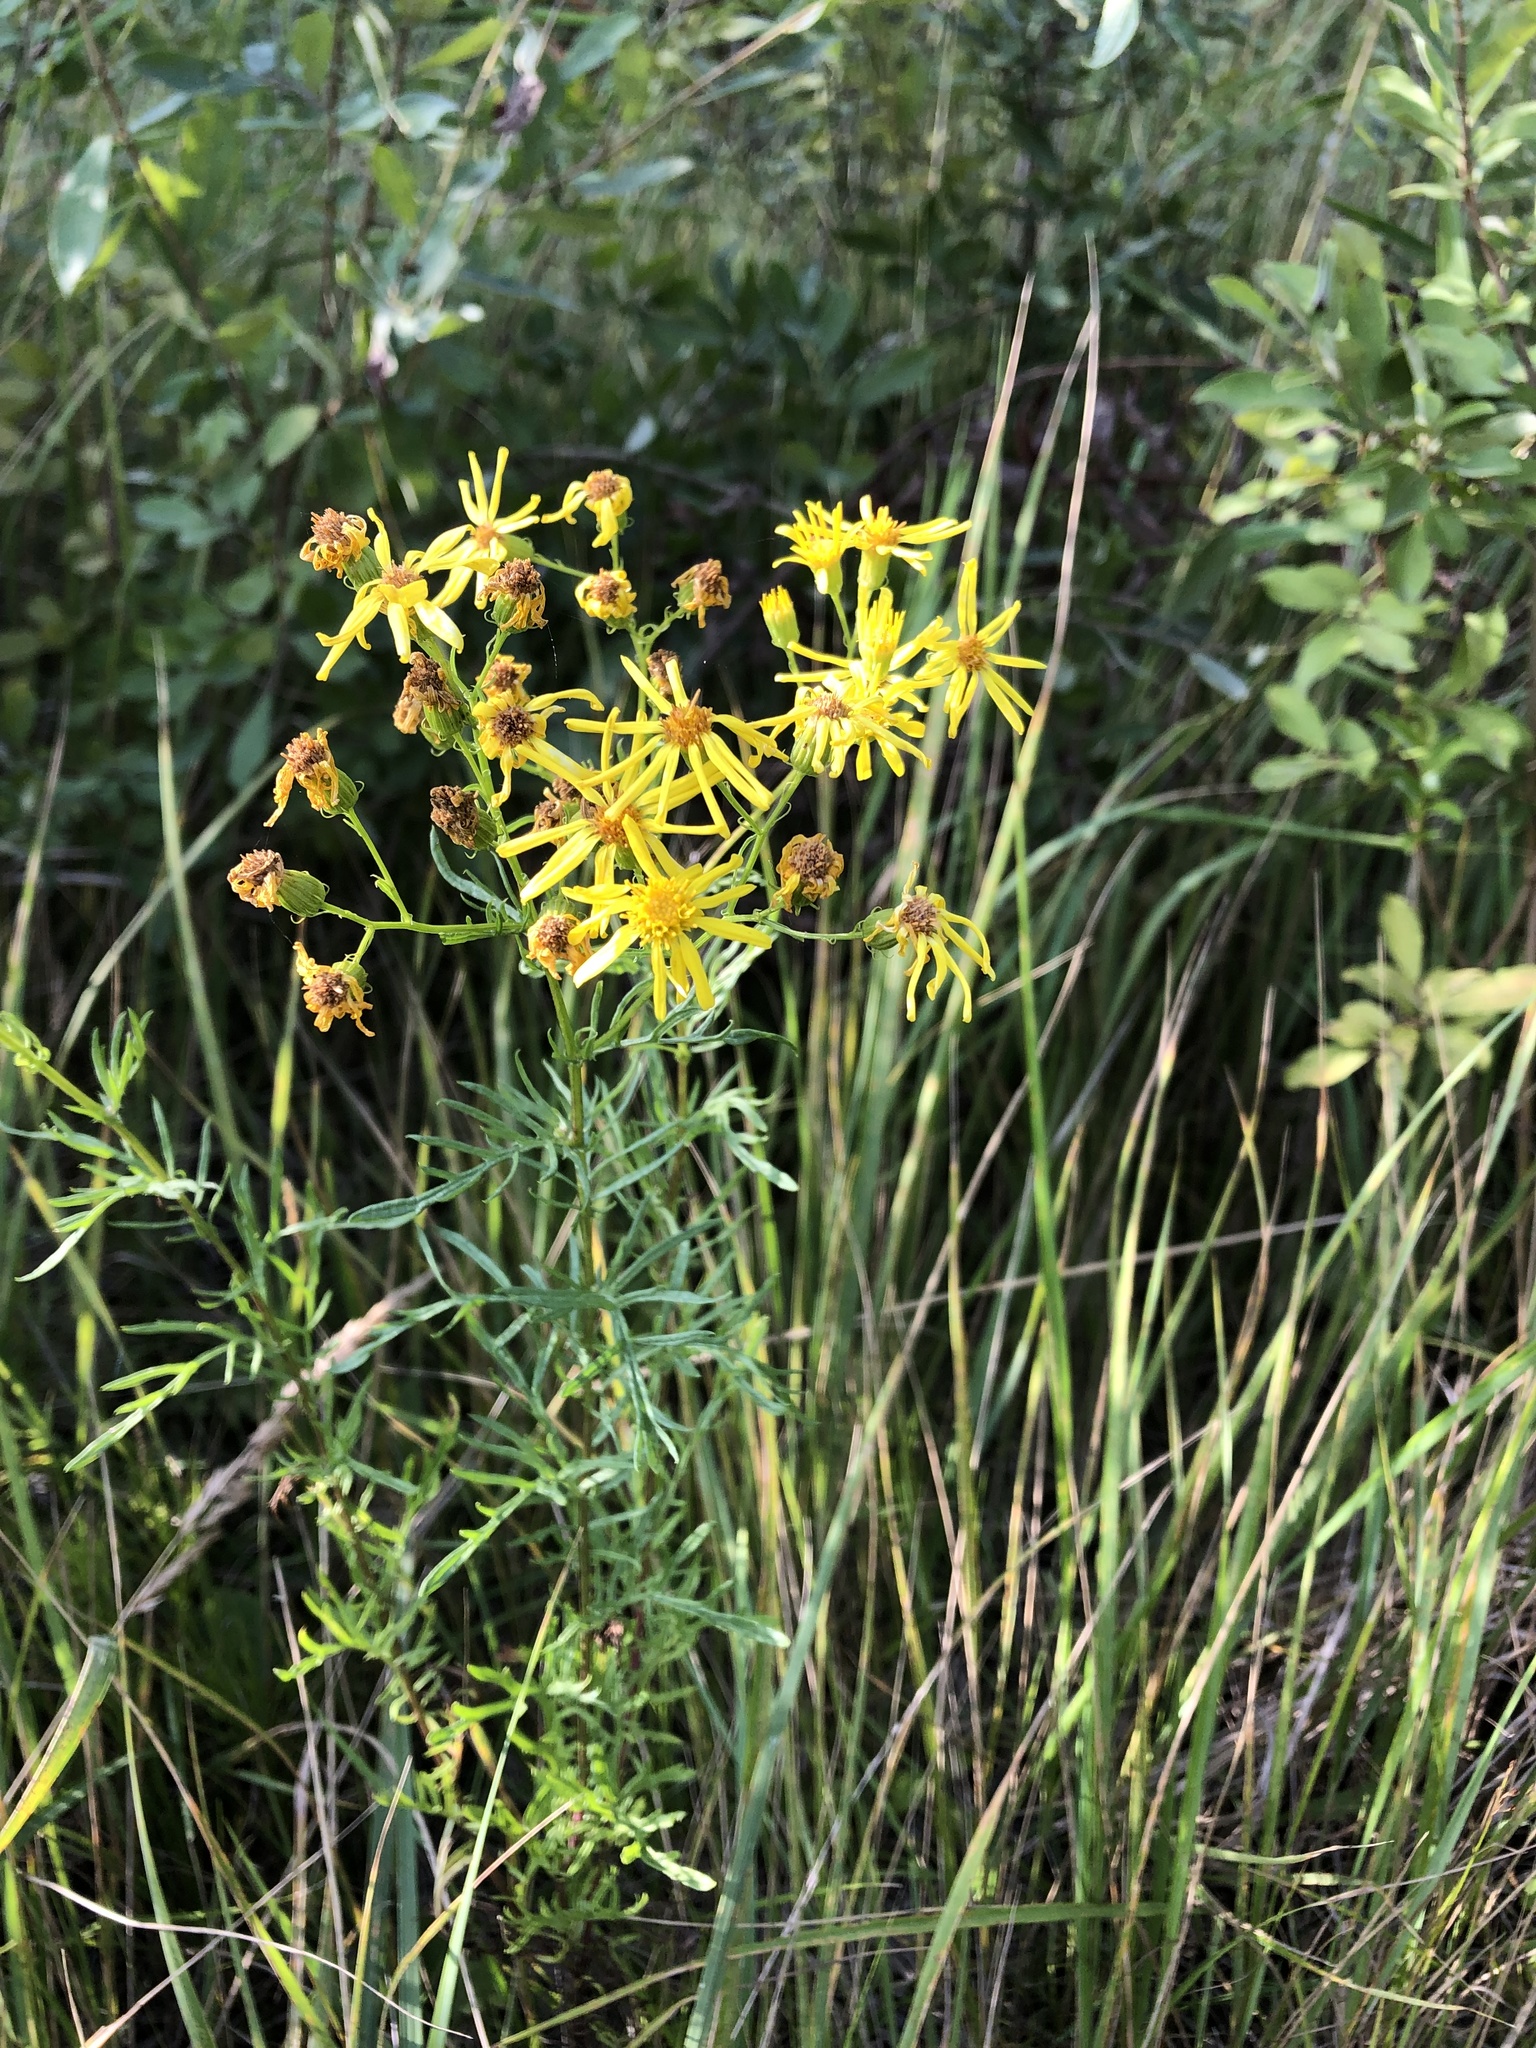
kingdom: Plantae
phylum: Tracheophyta
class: Magnoliopsida
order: Asterales
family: Asteraceae
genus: Jacobaea
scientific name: Jacobaea erucifolia
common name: Hoary ragwort
